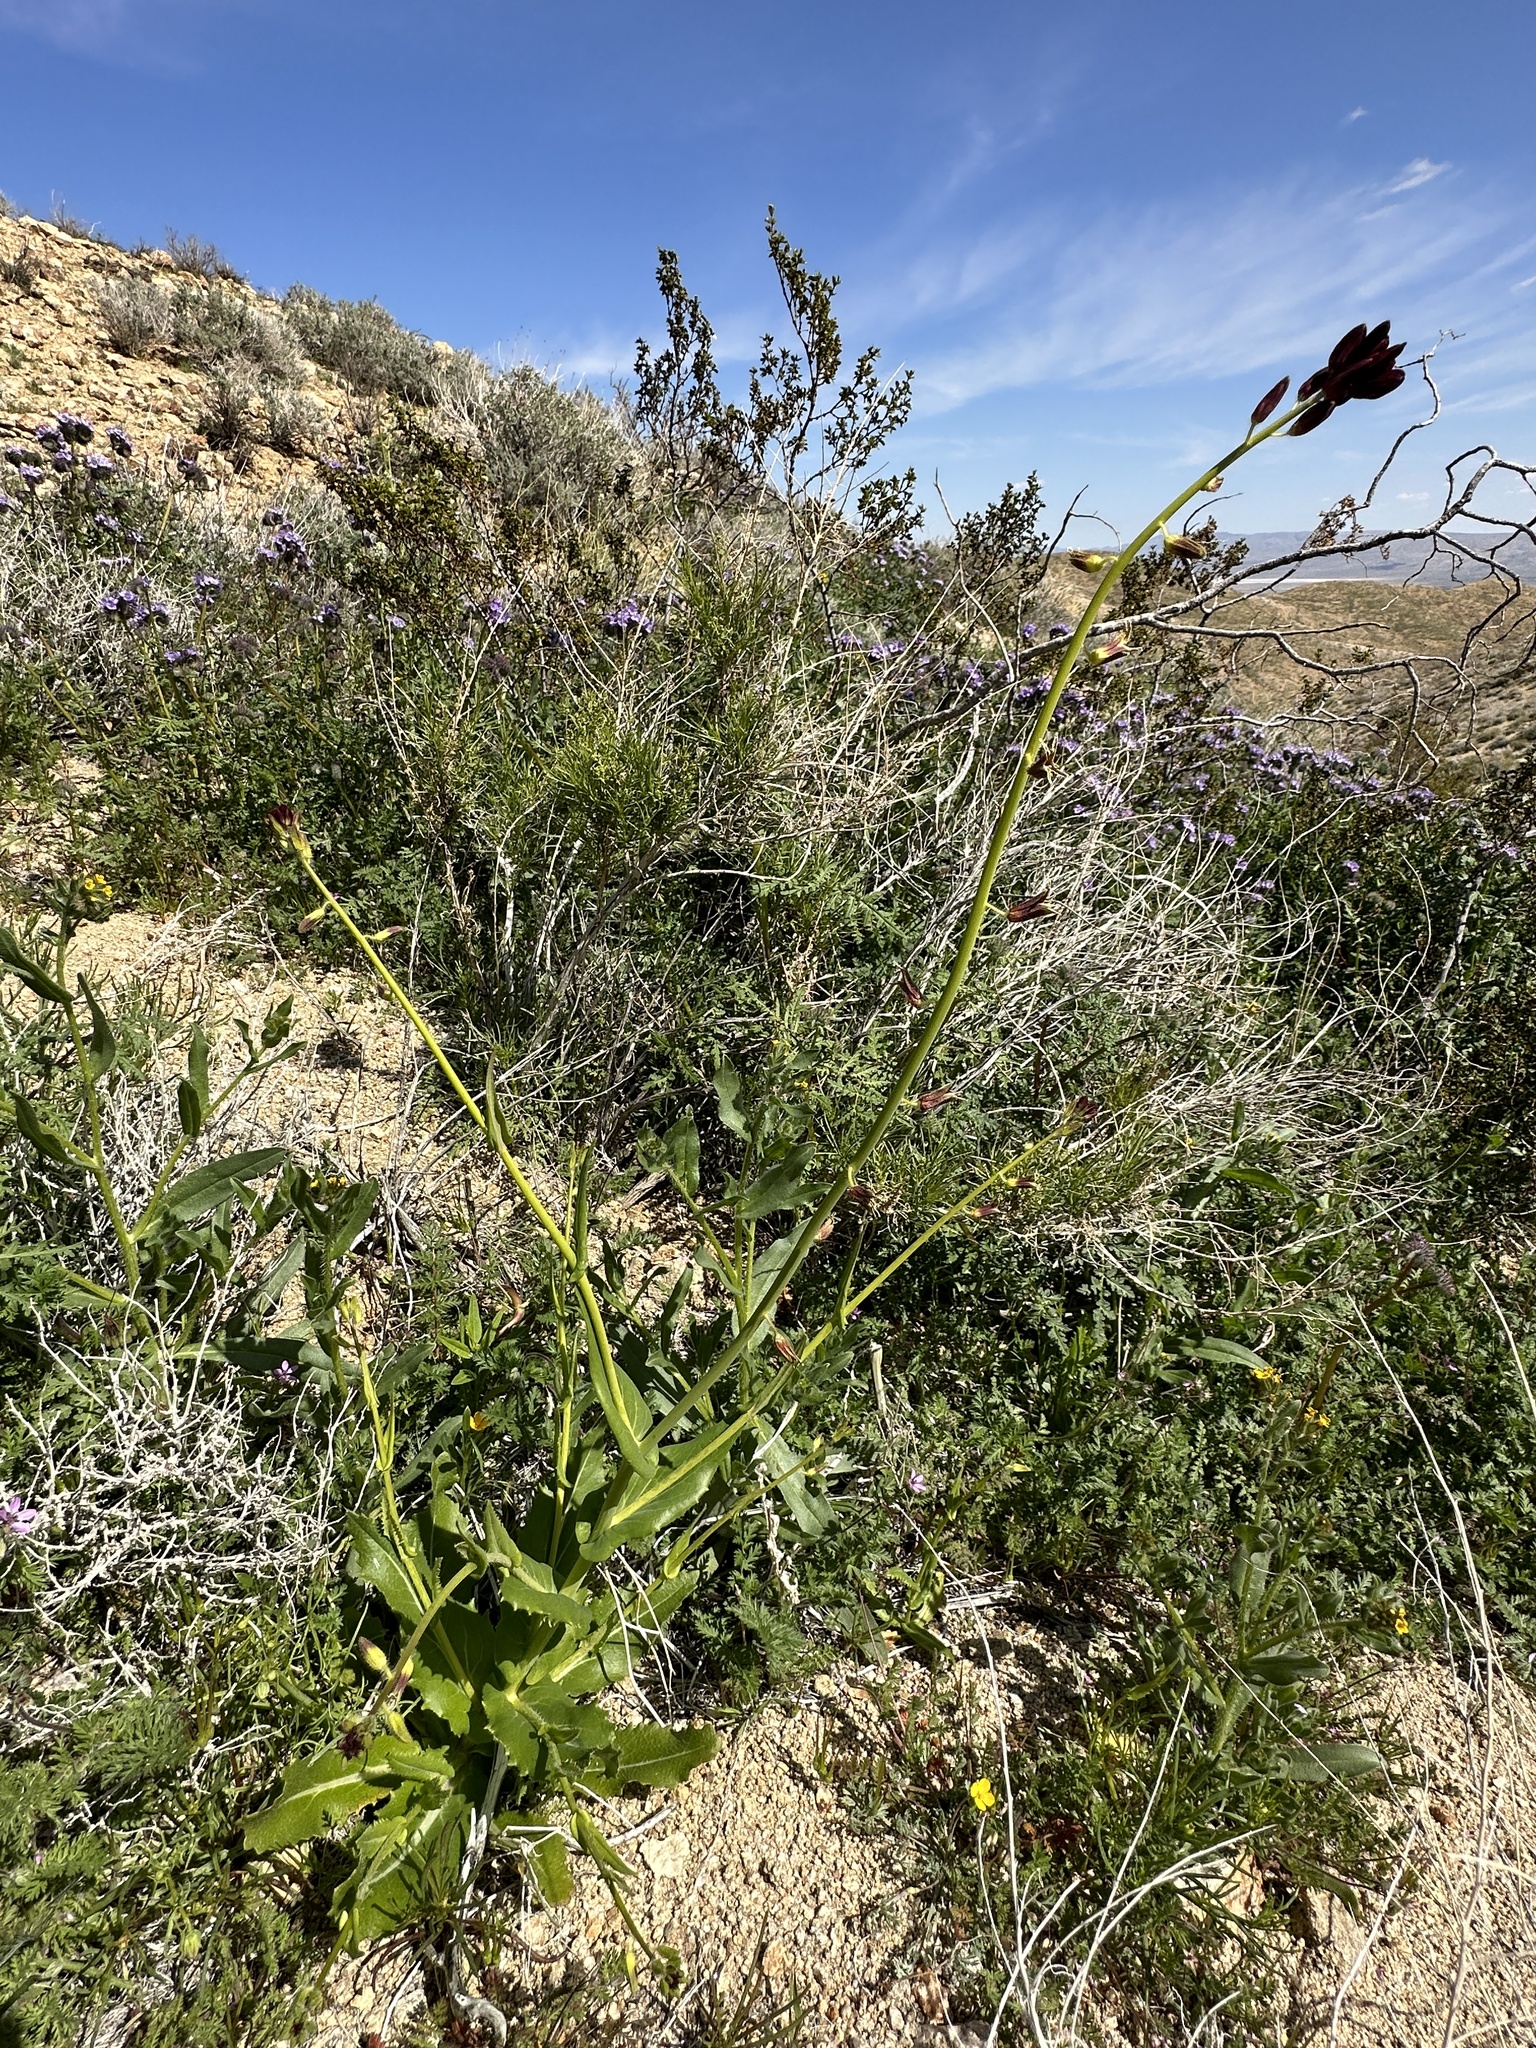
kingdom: Plantae
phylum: Tracheophyta
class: Magnoliopsida
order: Brassicales
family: Brassicaceae
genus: Streptanthus
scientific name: Streptanthus coulteri
